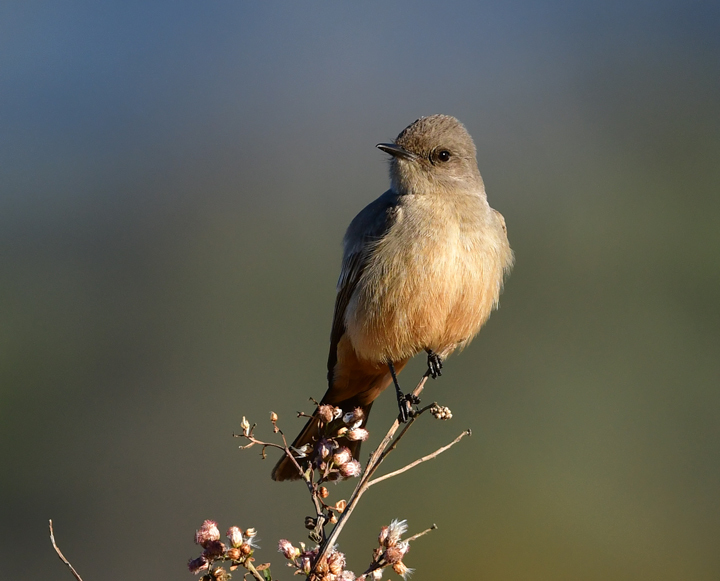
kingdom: Animalia
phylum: Chordata
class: Aves
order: Passeriformes
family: Tyrannidae
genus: Sayornis
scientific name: Sayornis saya
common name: Say's phoebe
